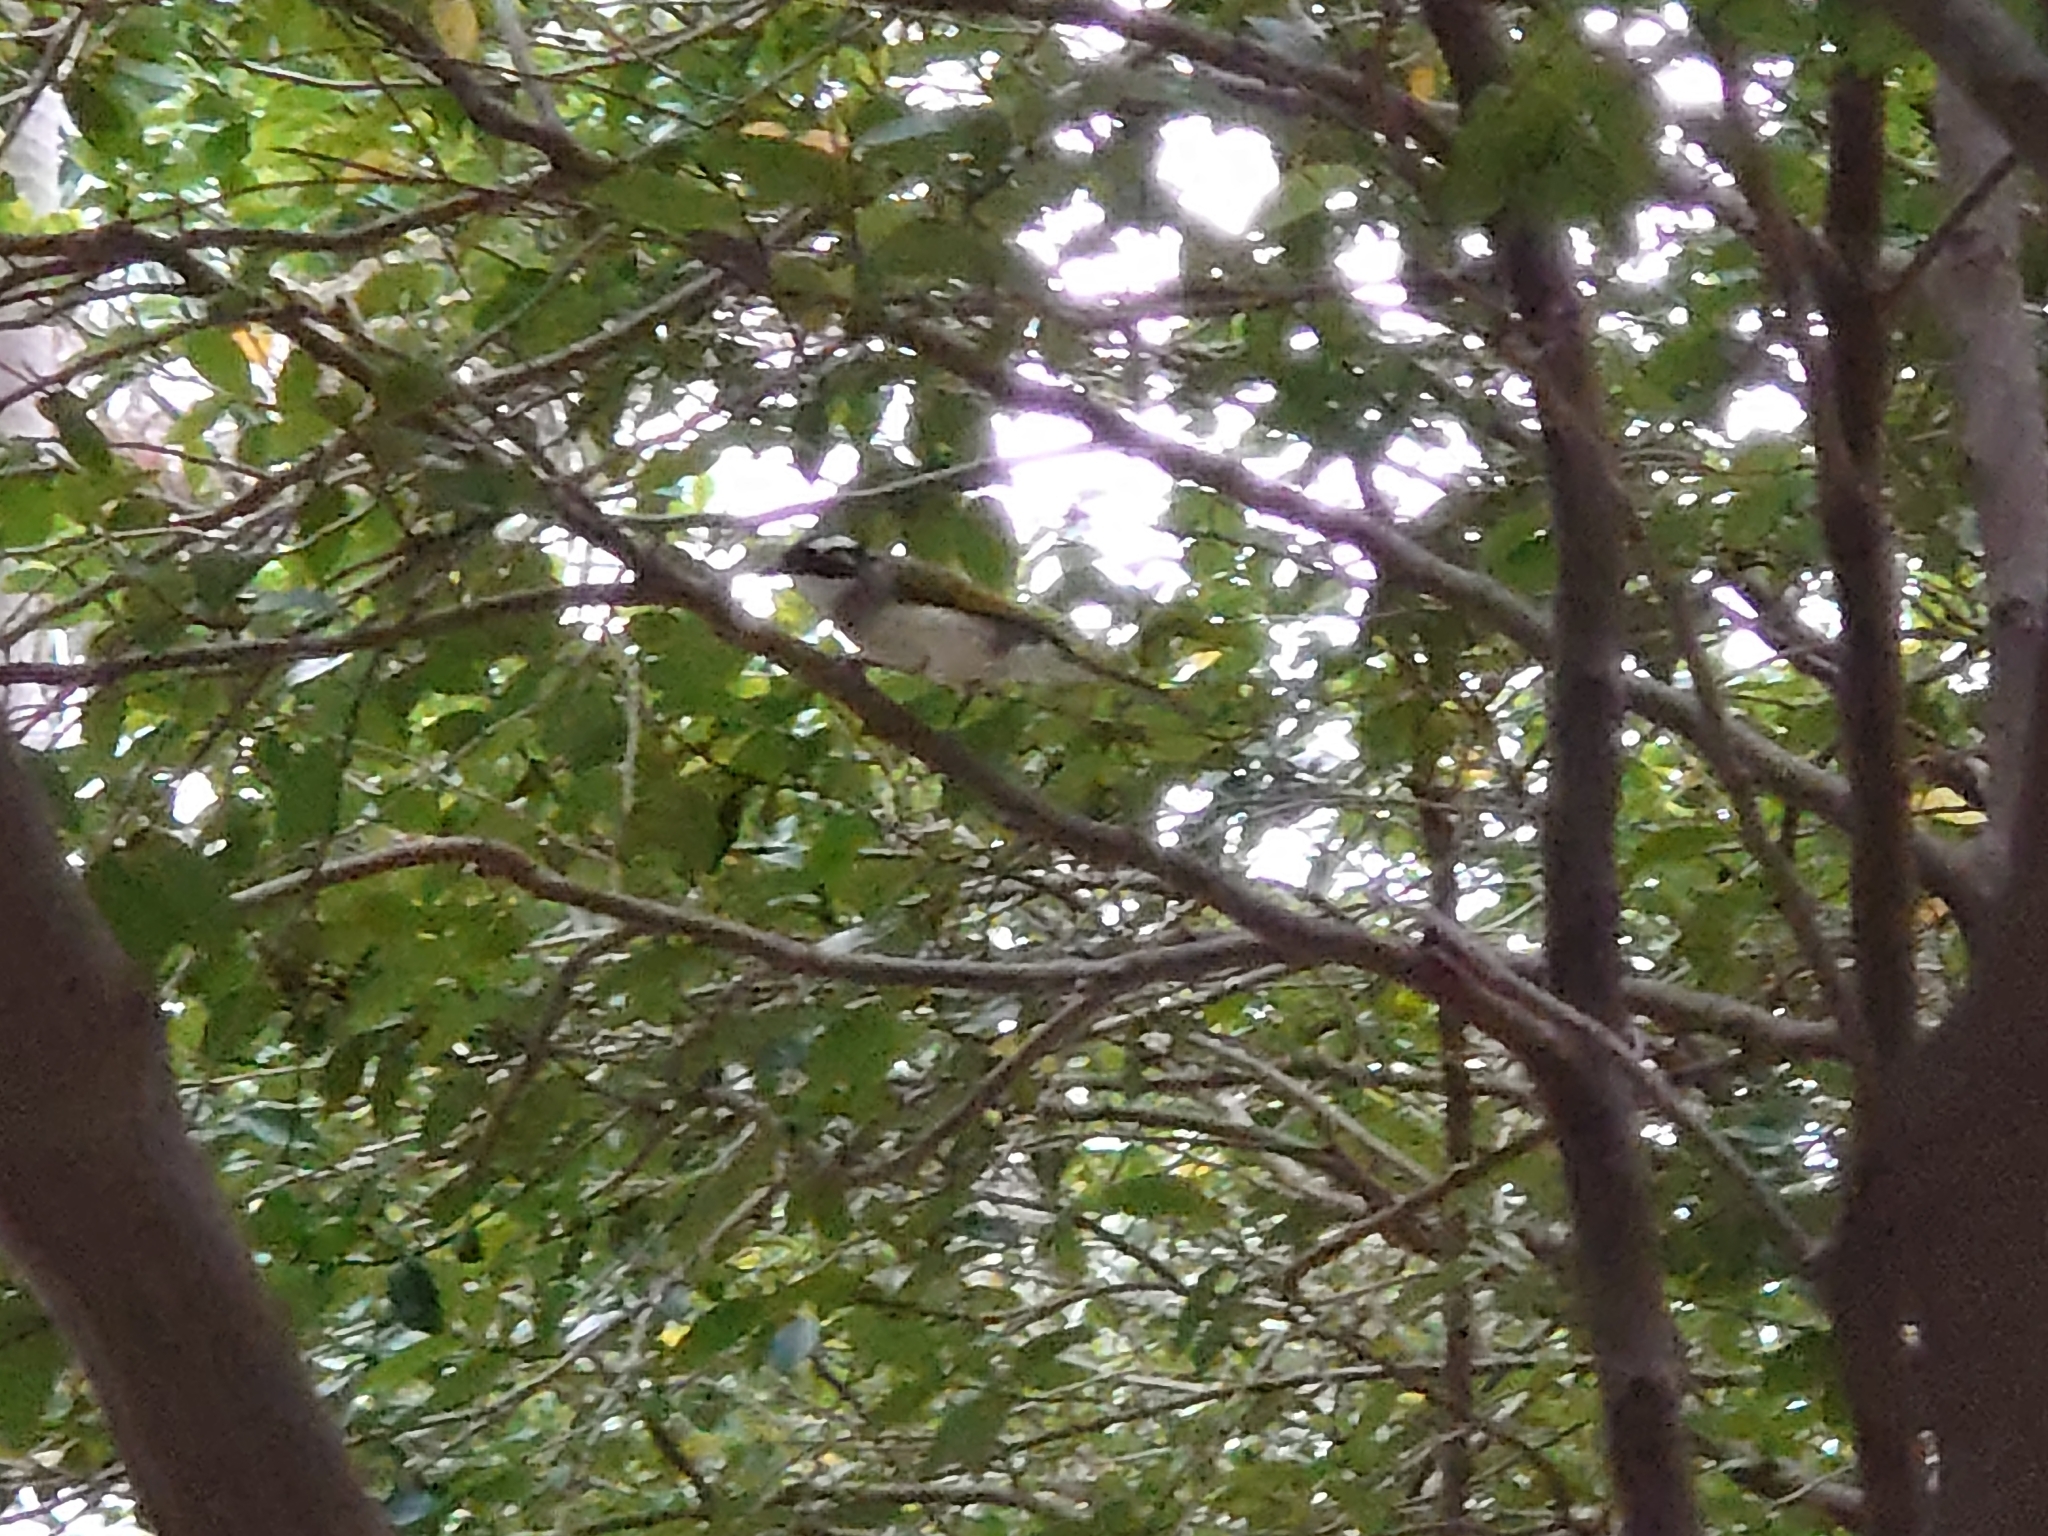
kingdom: Animalia
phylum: Chordata
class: Aves
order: Passeriformes
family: Pycnonotidae
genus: Pycnonotus
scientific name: Pycnonotus sinensis
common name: Light-vented bulbul
